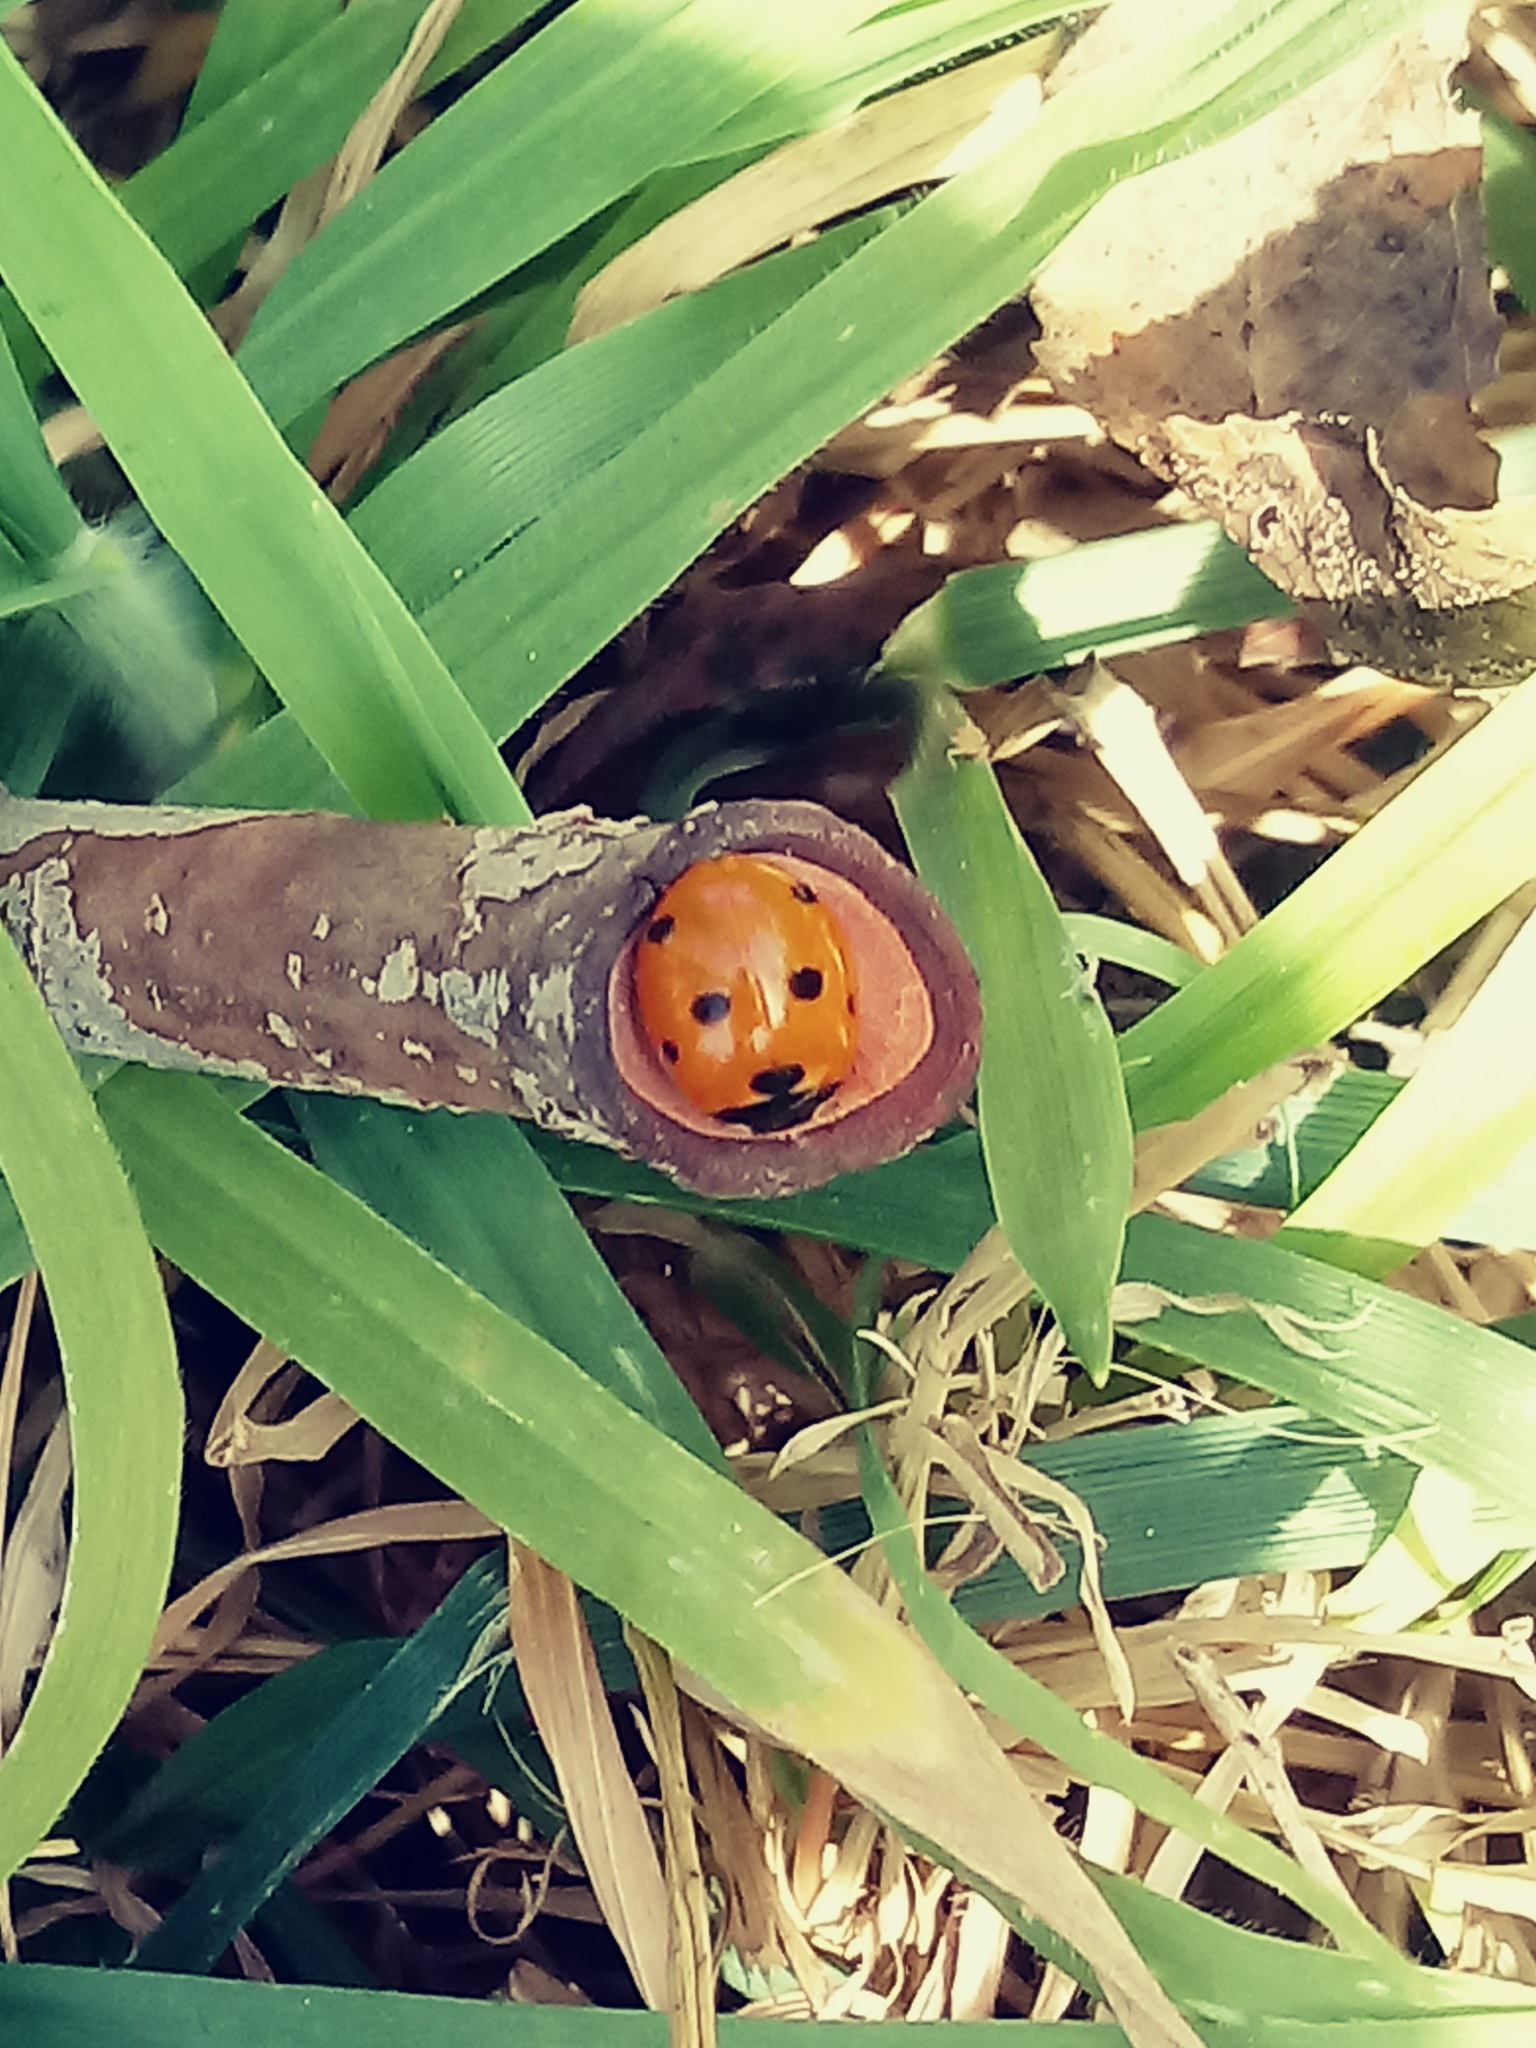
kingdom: Animalia
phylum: Arthropoda
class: Insecta
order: Coleoptera
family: Coccinellidae
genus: Coccinella
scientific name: Coccinella septempunctata
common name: Sevenspotted lady beetle
